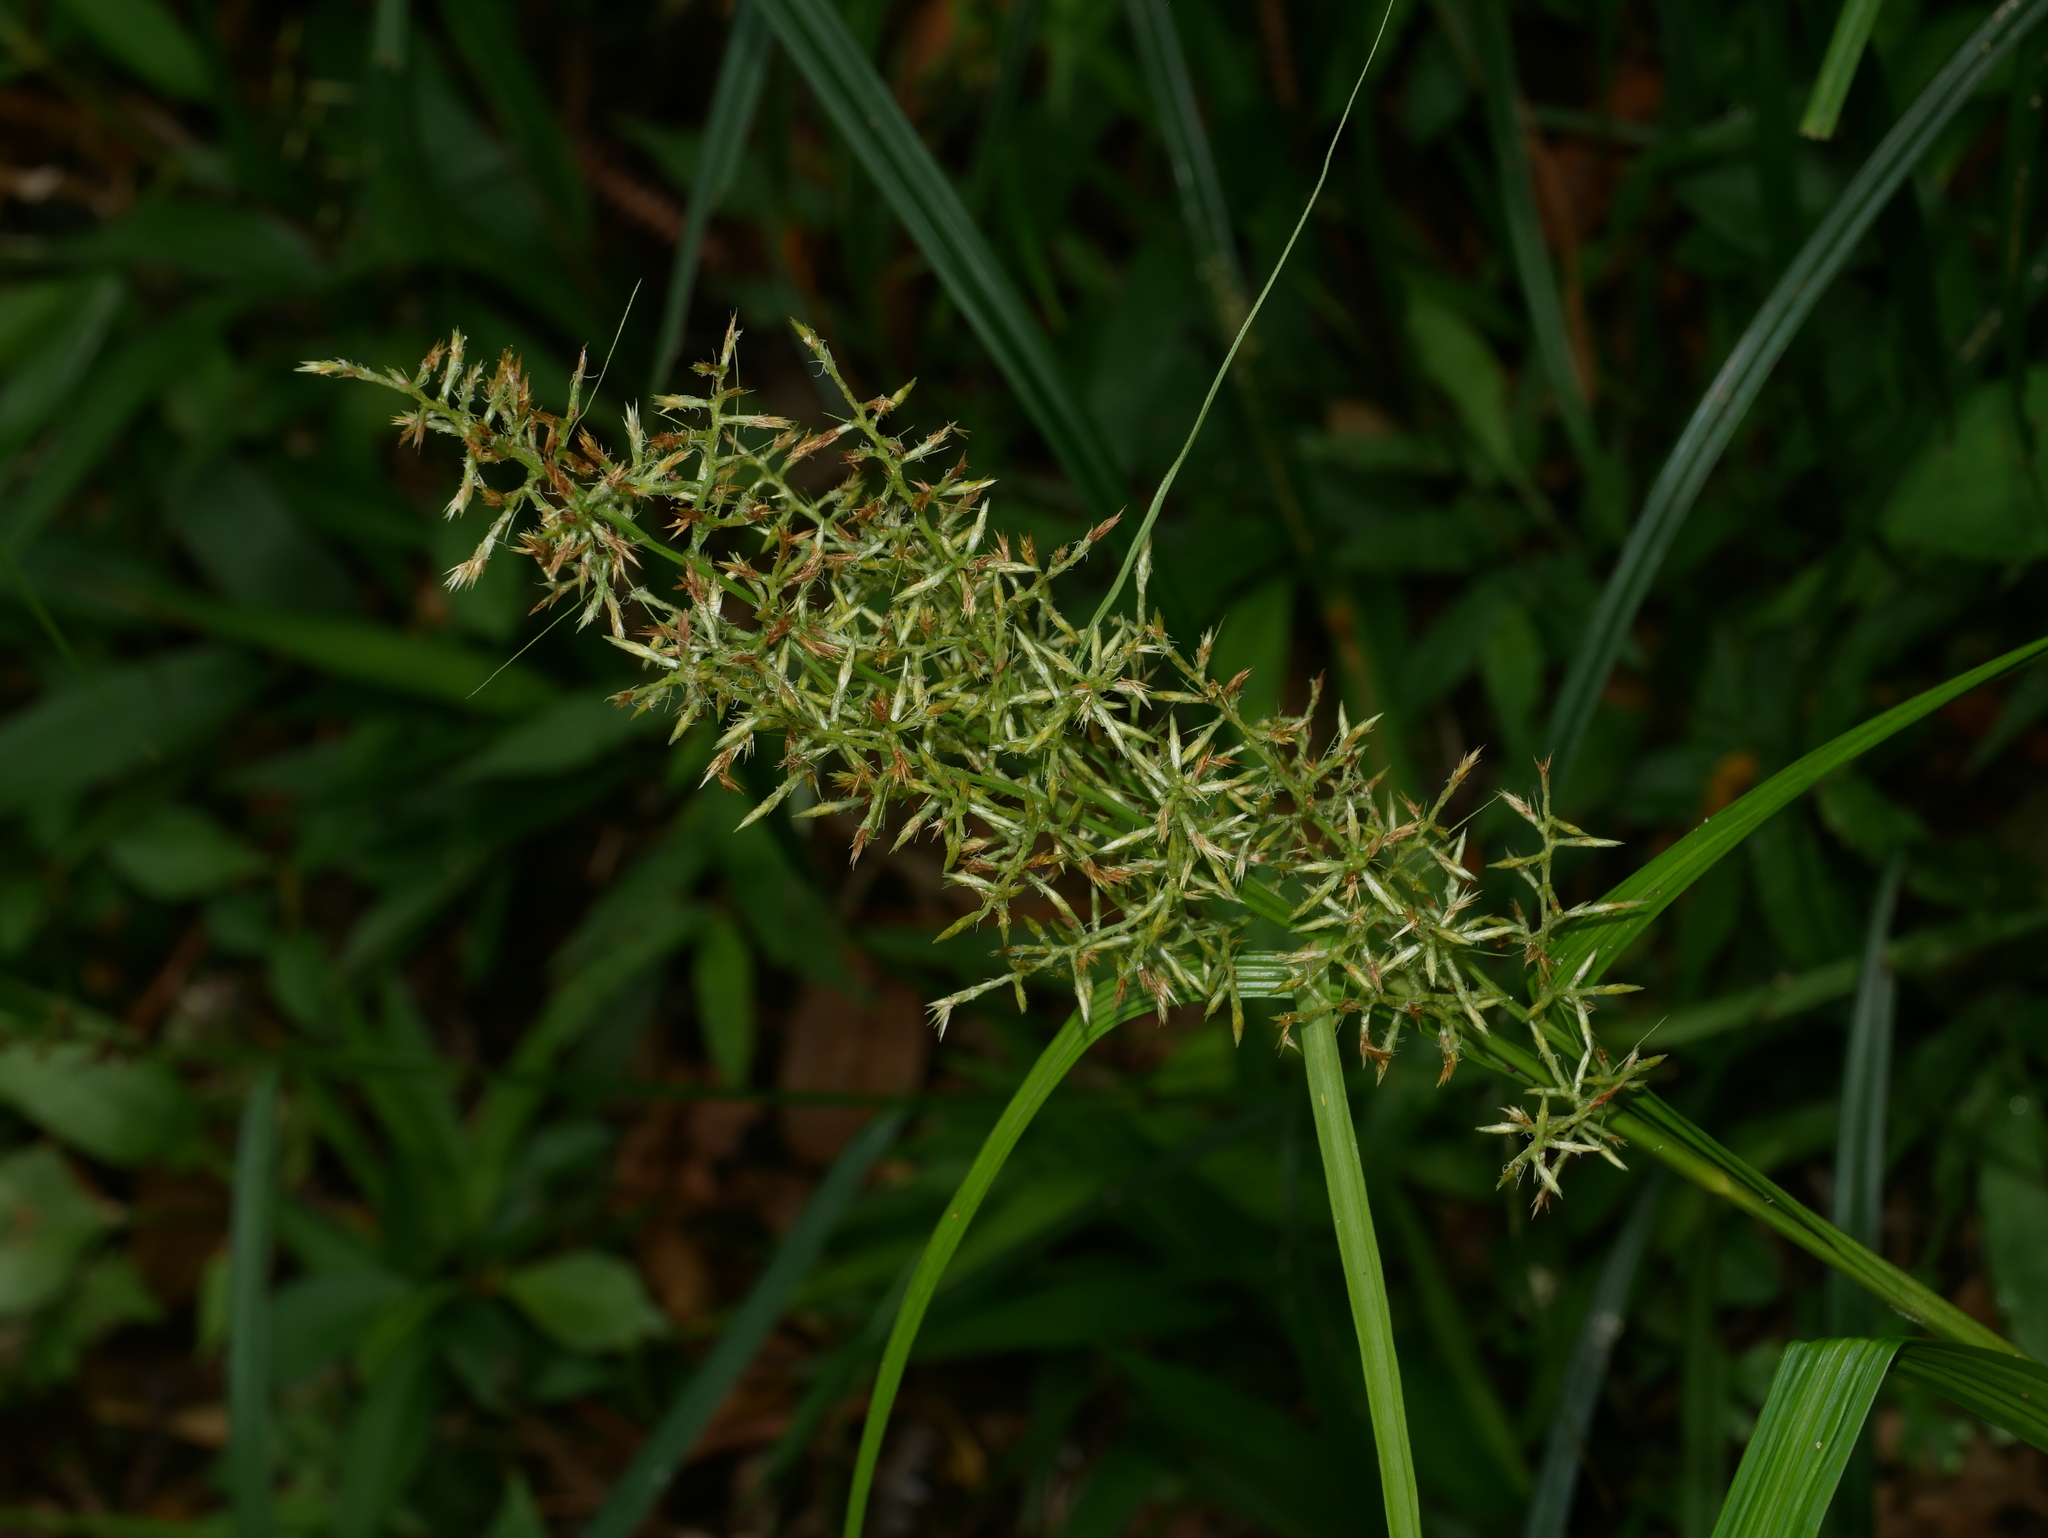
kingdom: Plantae
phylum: Tracheophyta
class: Liliopsida
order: Poales
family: Cyperaceae
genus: Carex
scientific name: Carex cruciata
